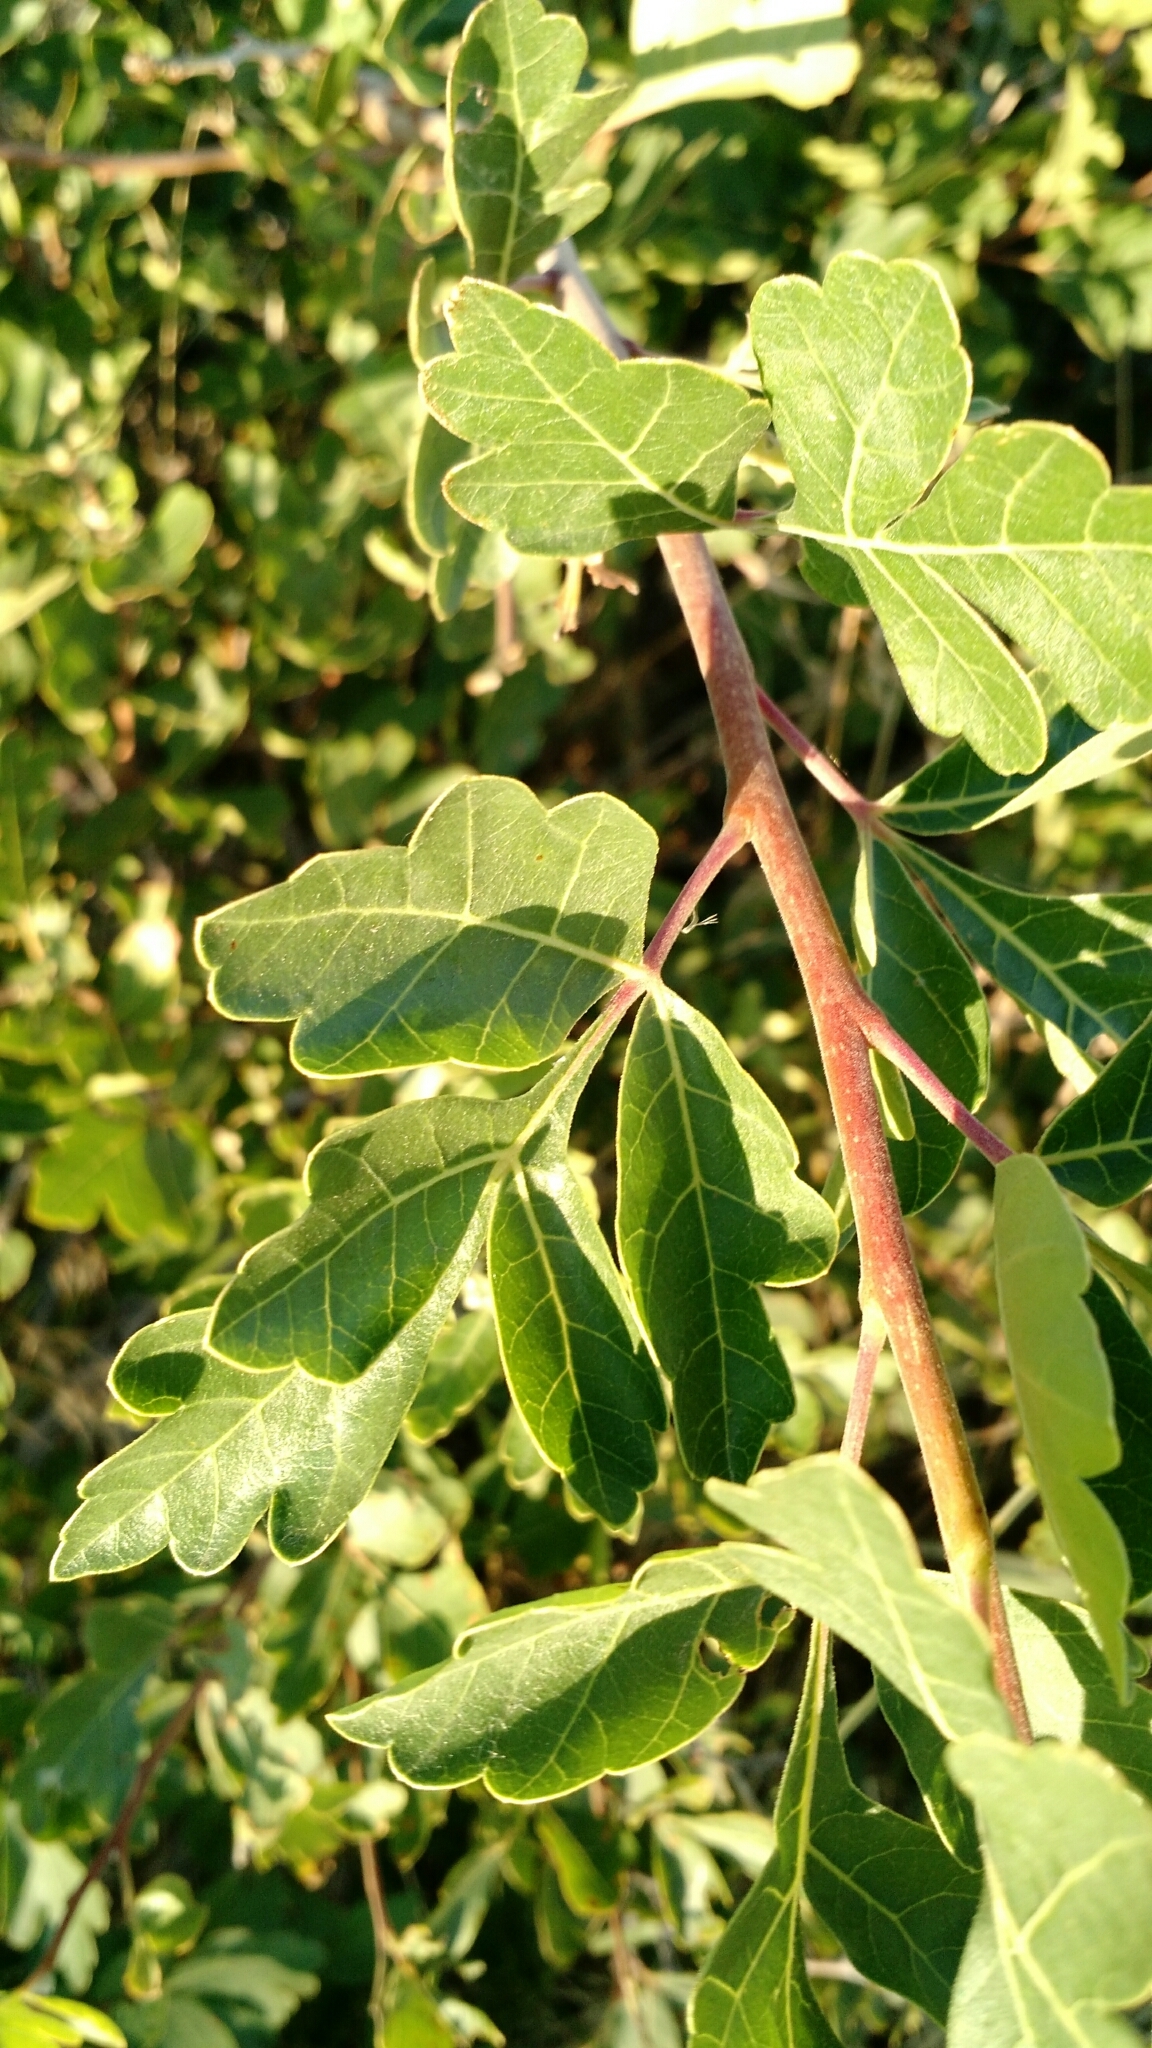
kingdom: Plantae
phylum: Tracheophyta
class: Magnoliopsida
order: Sapindales
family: Anacardiaceae
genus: Rhus
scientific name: Rhus aromatica
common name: Aromatic sumac
